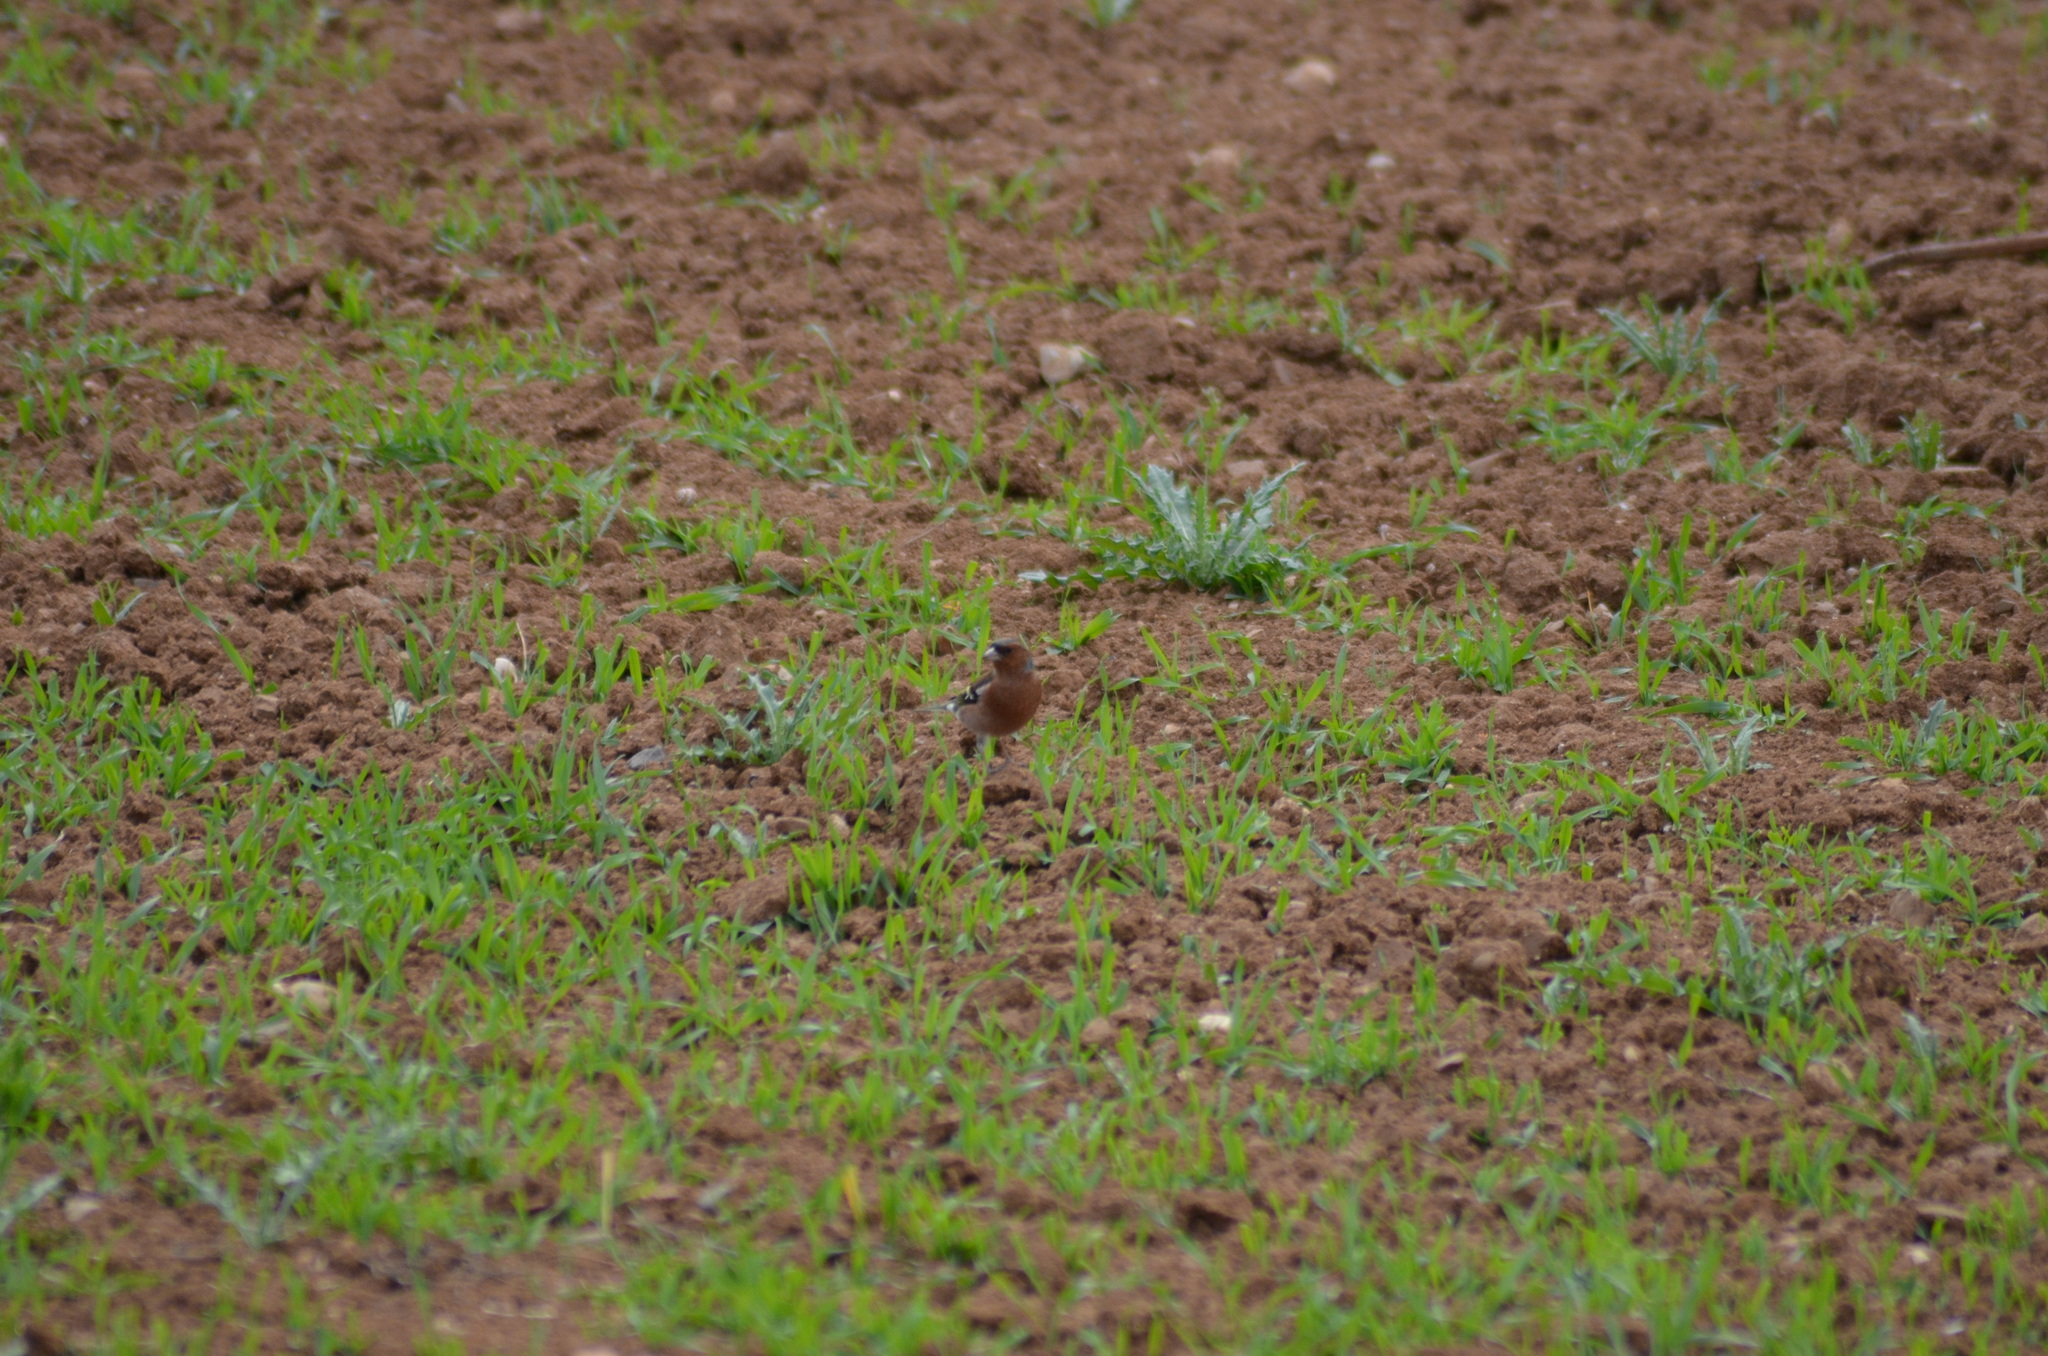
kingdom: Plantae
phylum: Tracheophyta
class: Liliopsida
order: Poales
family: Poaceae
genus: Chloris
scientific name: Chloris chloris
